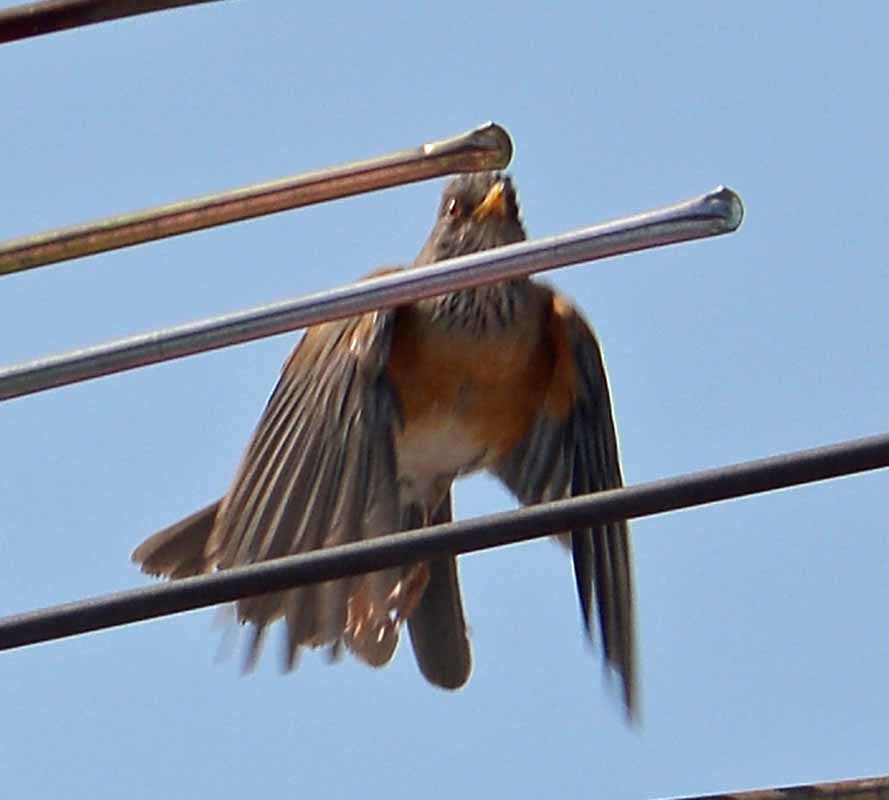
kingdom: Animalia
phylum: Chordata
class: Aves
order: Passeriformes
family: Turdidae
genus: Turdus
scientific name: Turdus rufopalliatus
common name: Rufous-backed robin
